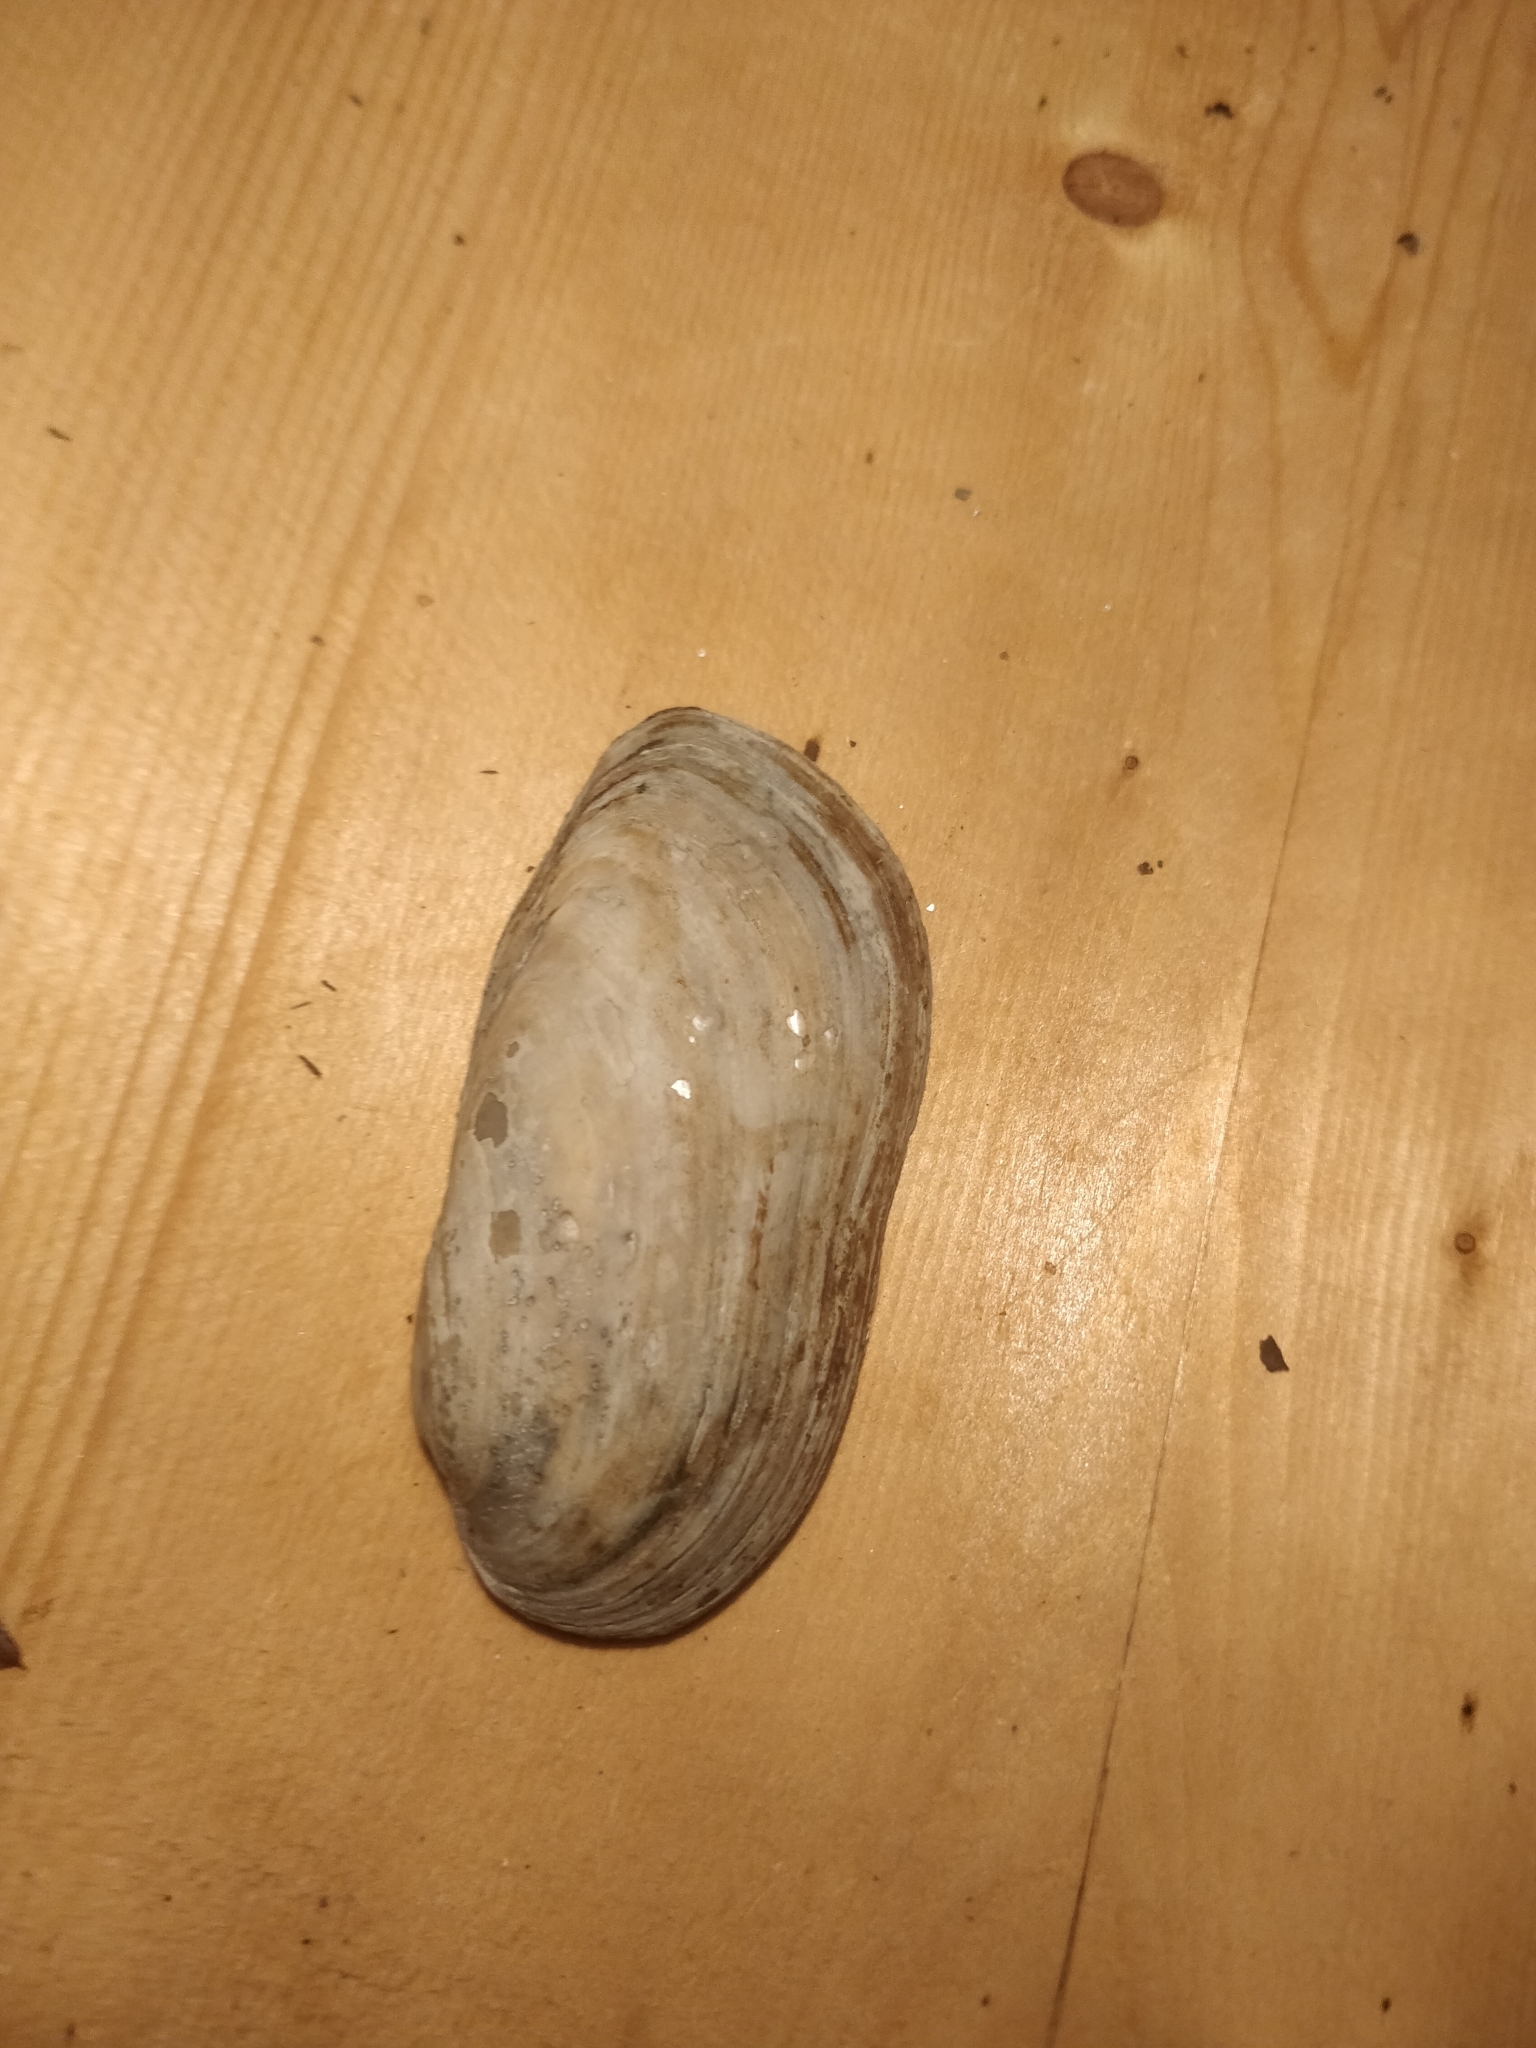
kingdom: Animalia
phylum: Mollusca
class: Bivalvia
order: Unionida
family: Unionidae
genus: Lampsilis
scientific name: Lampsilis teres
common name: Yellow sandshell
